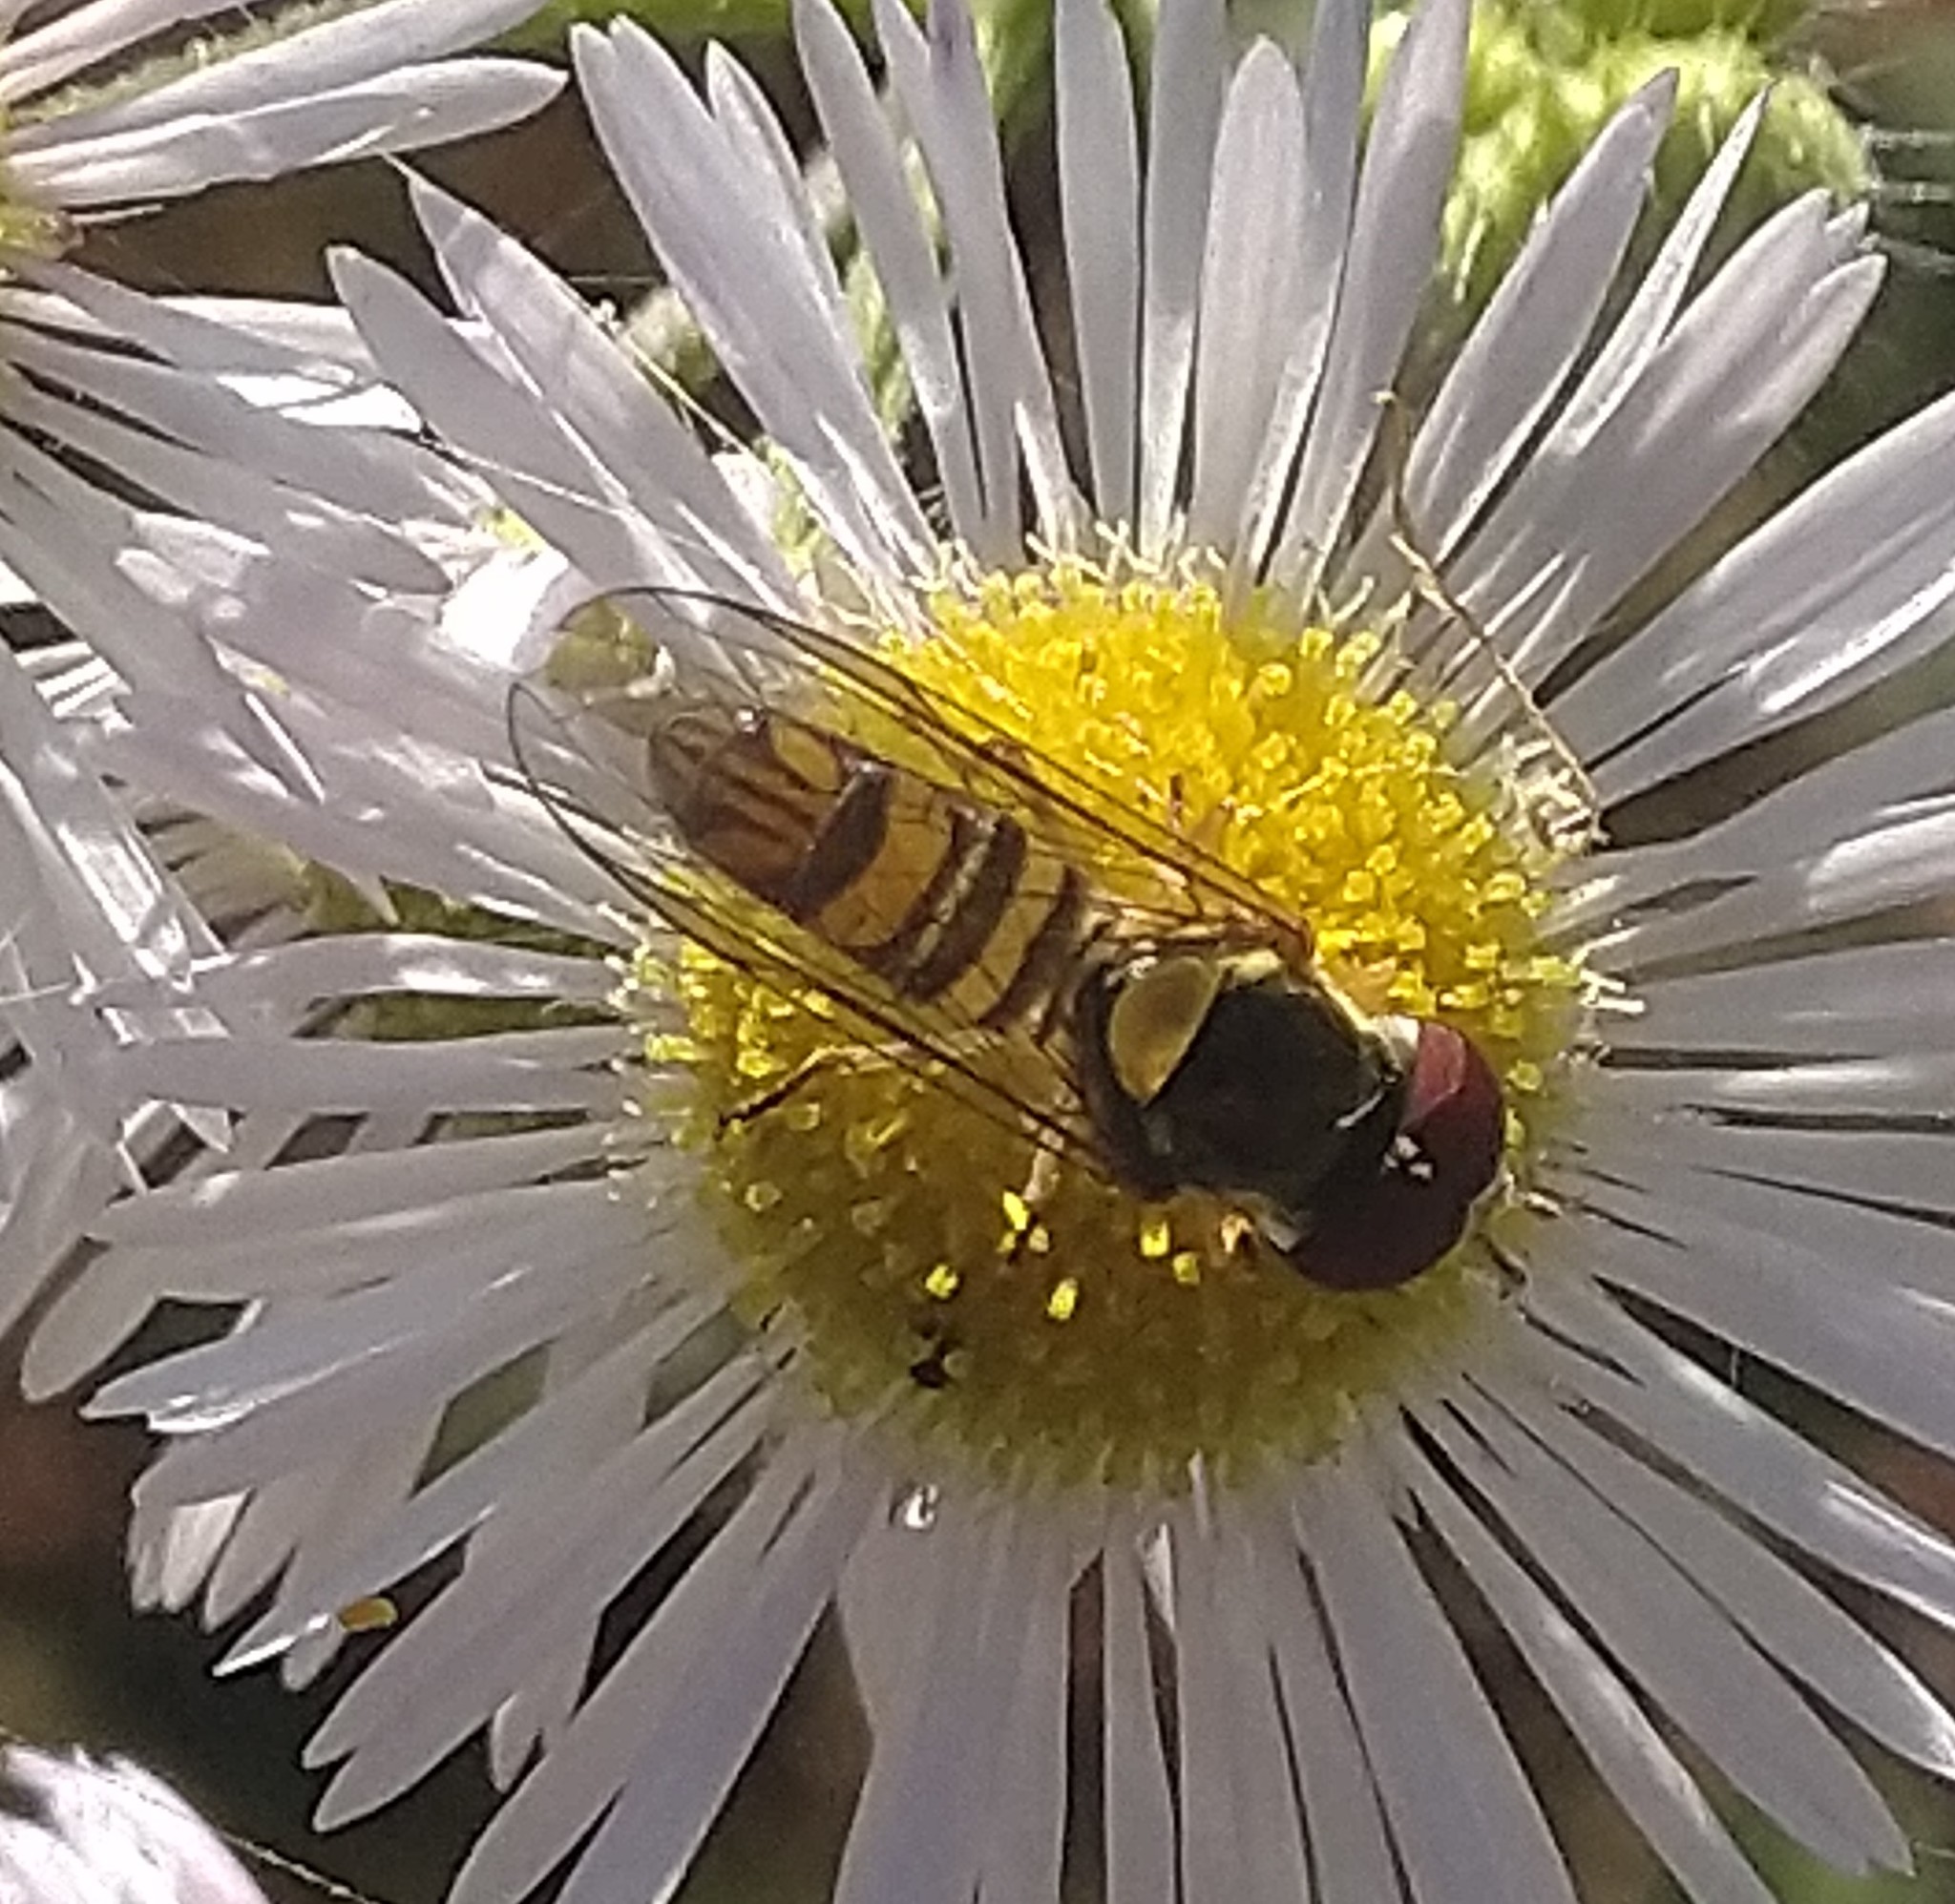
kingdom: Animalia
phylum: Arthropoda
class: Insecta
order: Diptera
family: Syrphidae
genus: Allograpta
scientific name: Allograpta obliqua
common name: Common oblique syrphid
